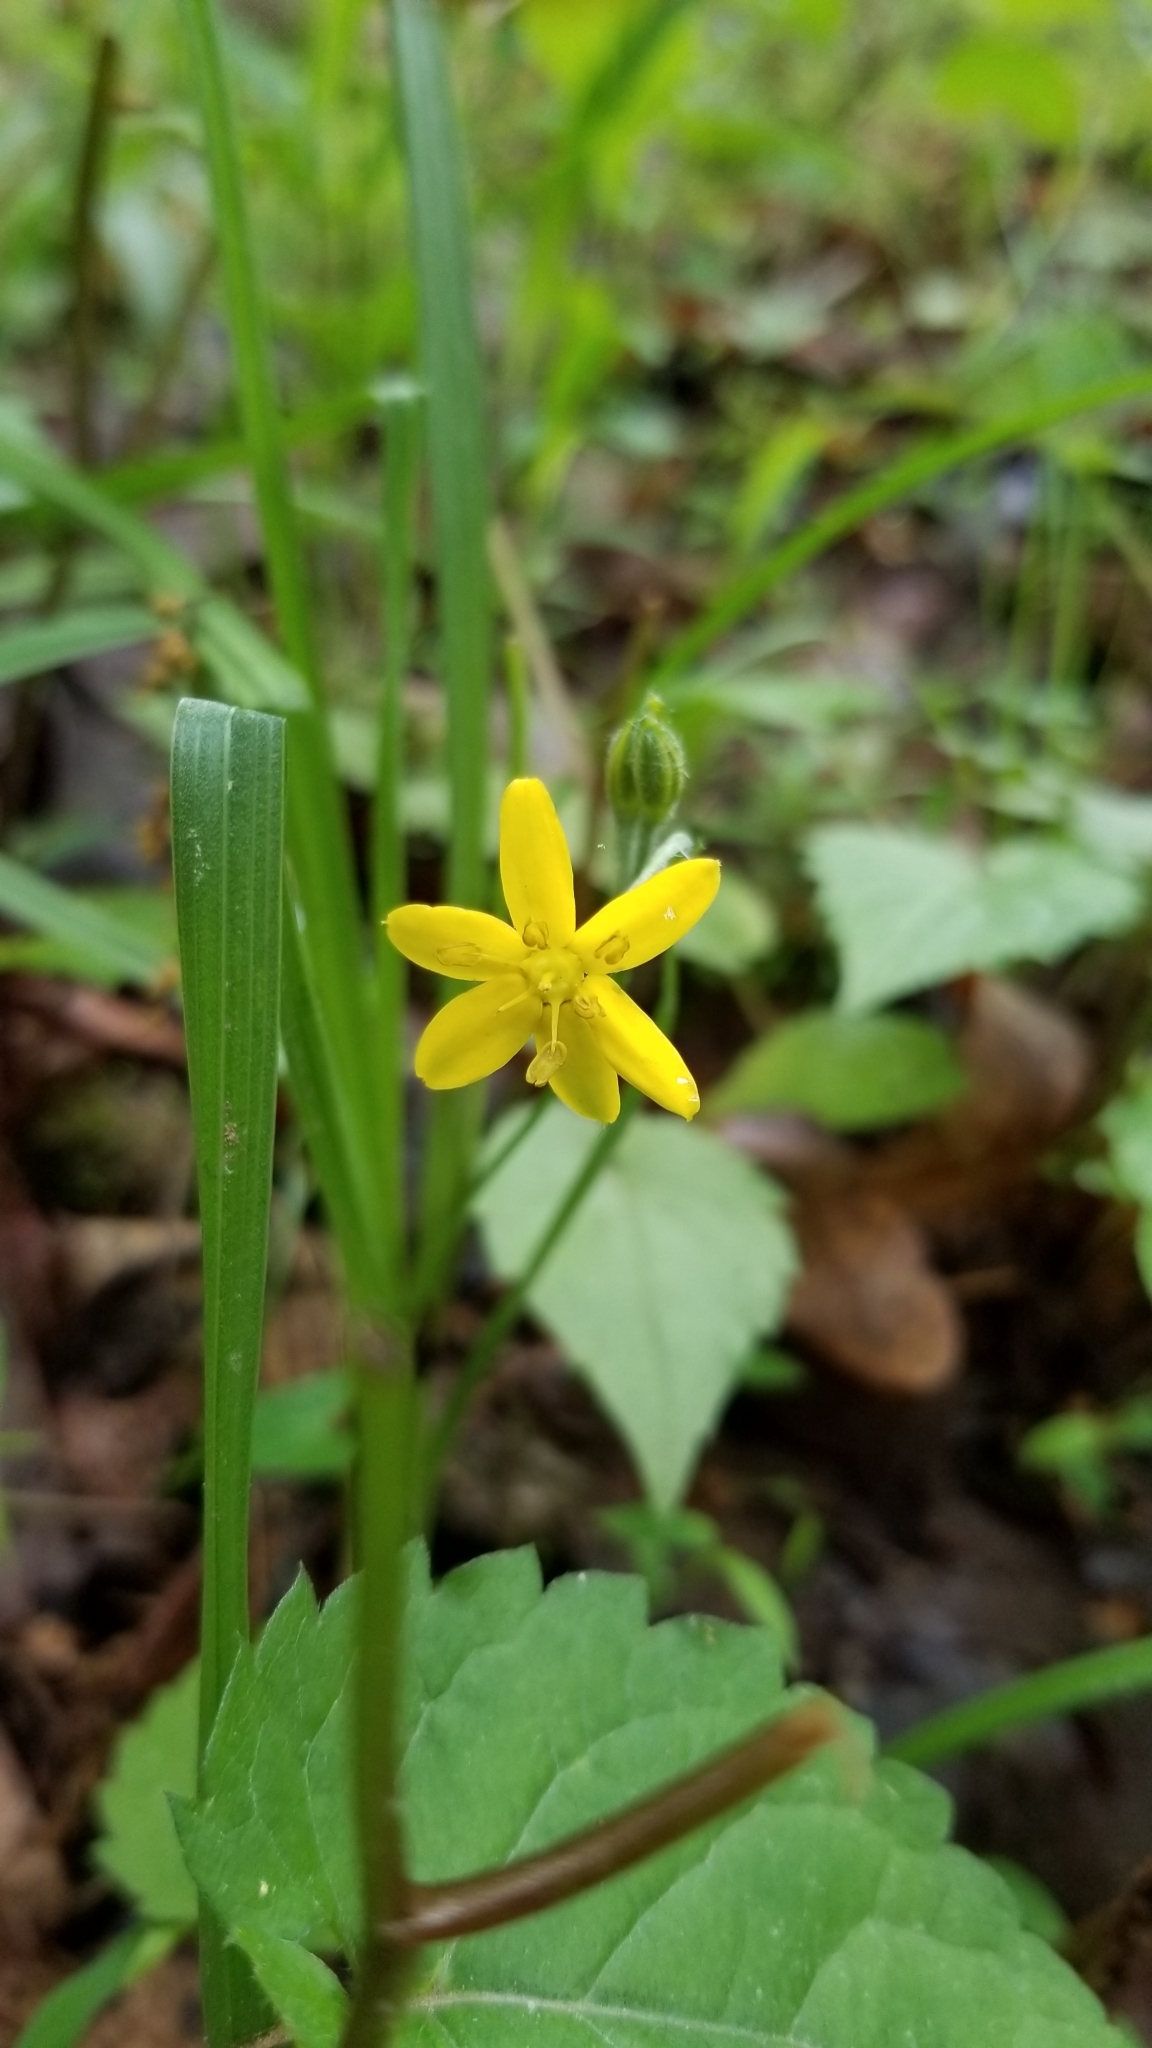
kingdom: Plantae
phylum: Tracheophyta
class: Liliopsida
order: Asparagales
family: Hypoxidaceae
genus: Hypoxis
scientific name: Hypoxis hirsuta
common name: Common goldstar
